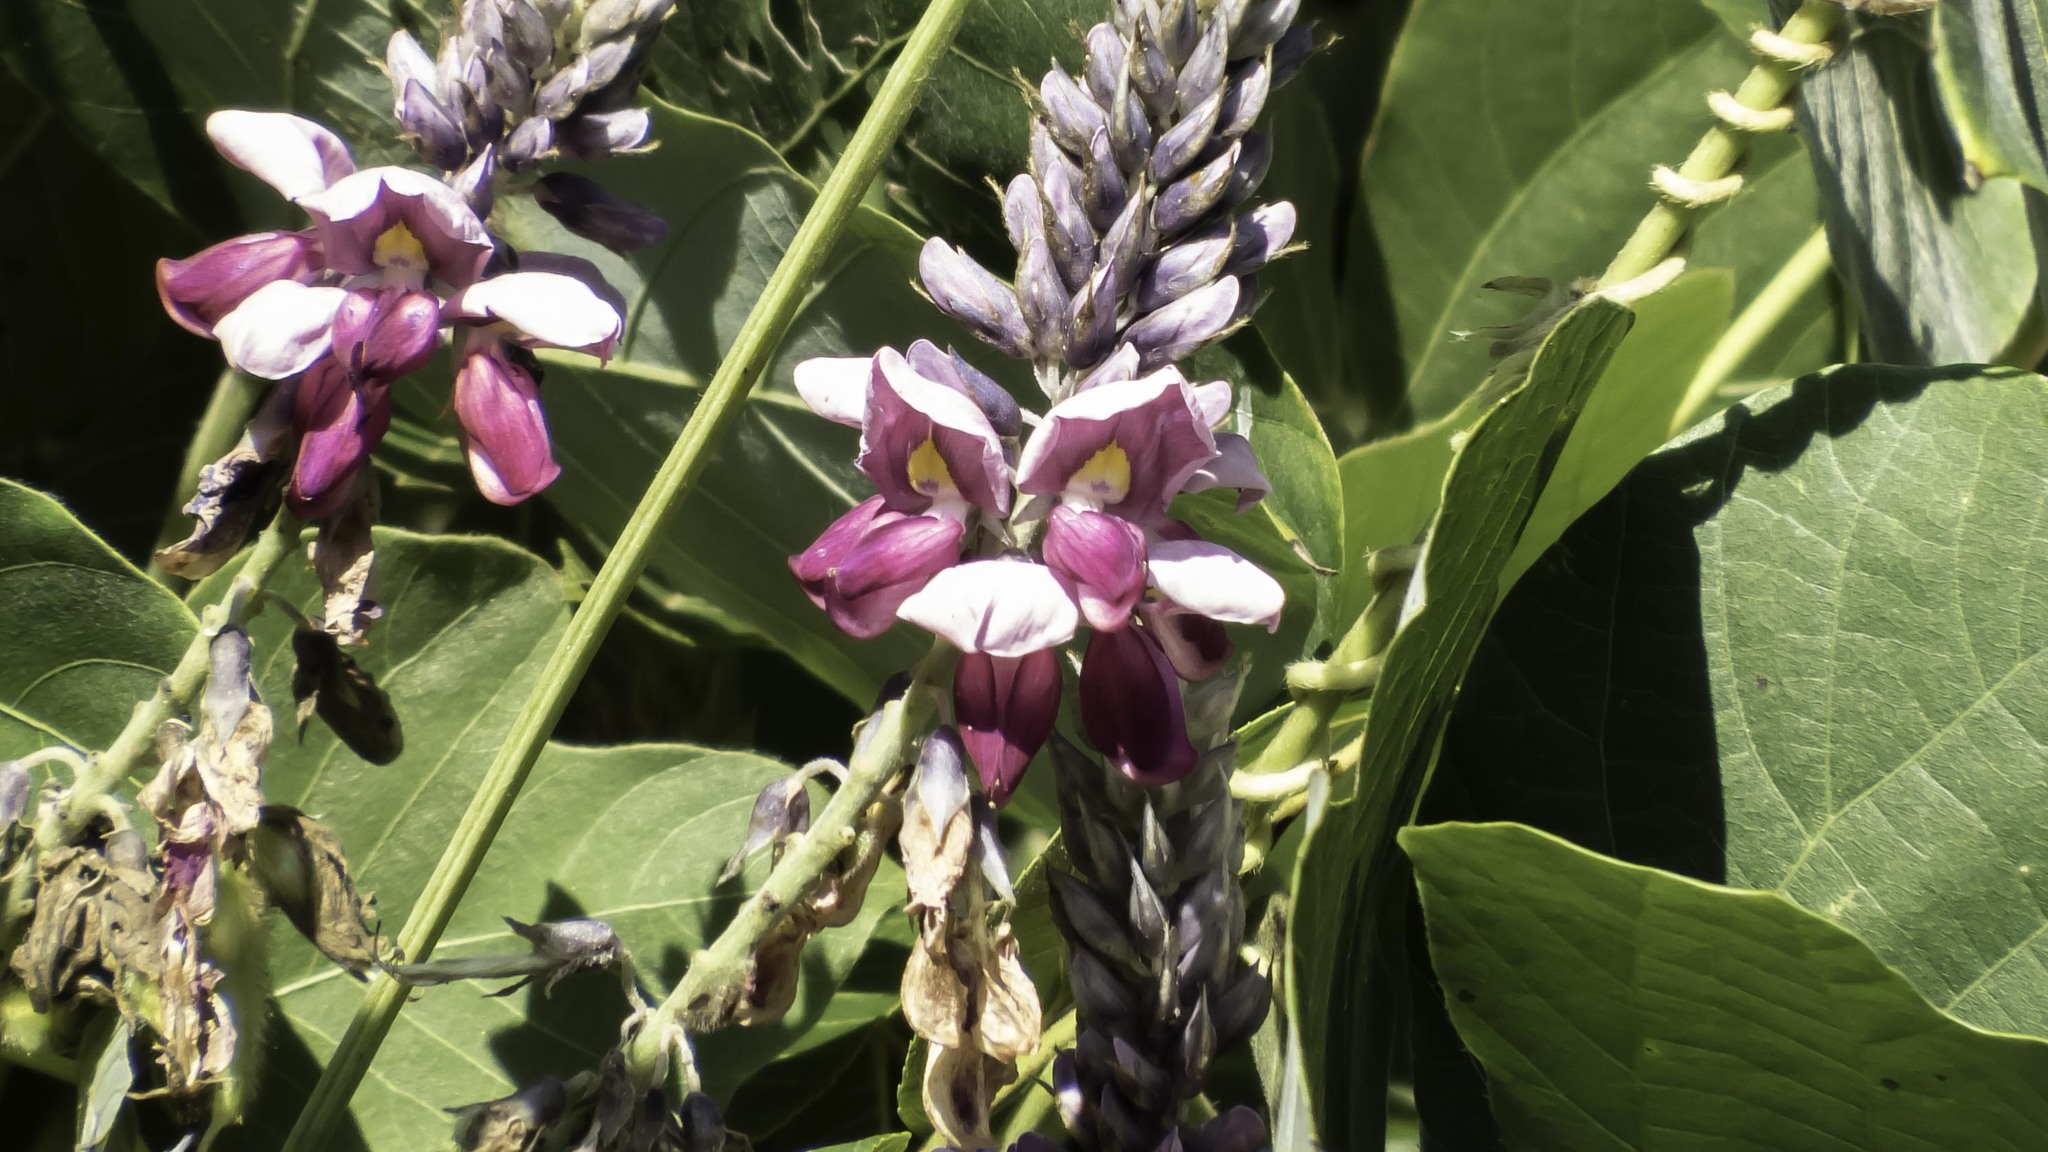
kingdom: Plantae
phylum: Tracheophyta
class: Magnoliopsida
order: Fabales
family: Fabaceae
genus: Pueraria
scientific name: Pueraria montana
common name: Kudzu
